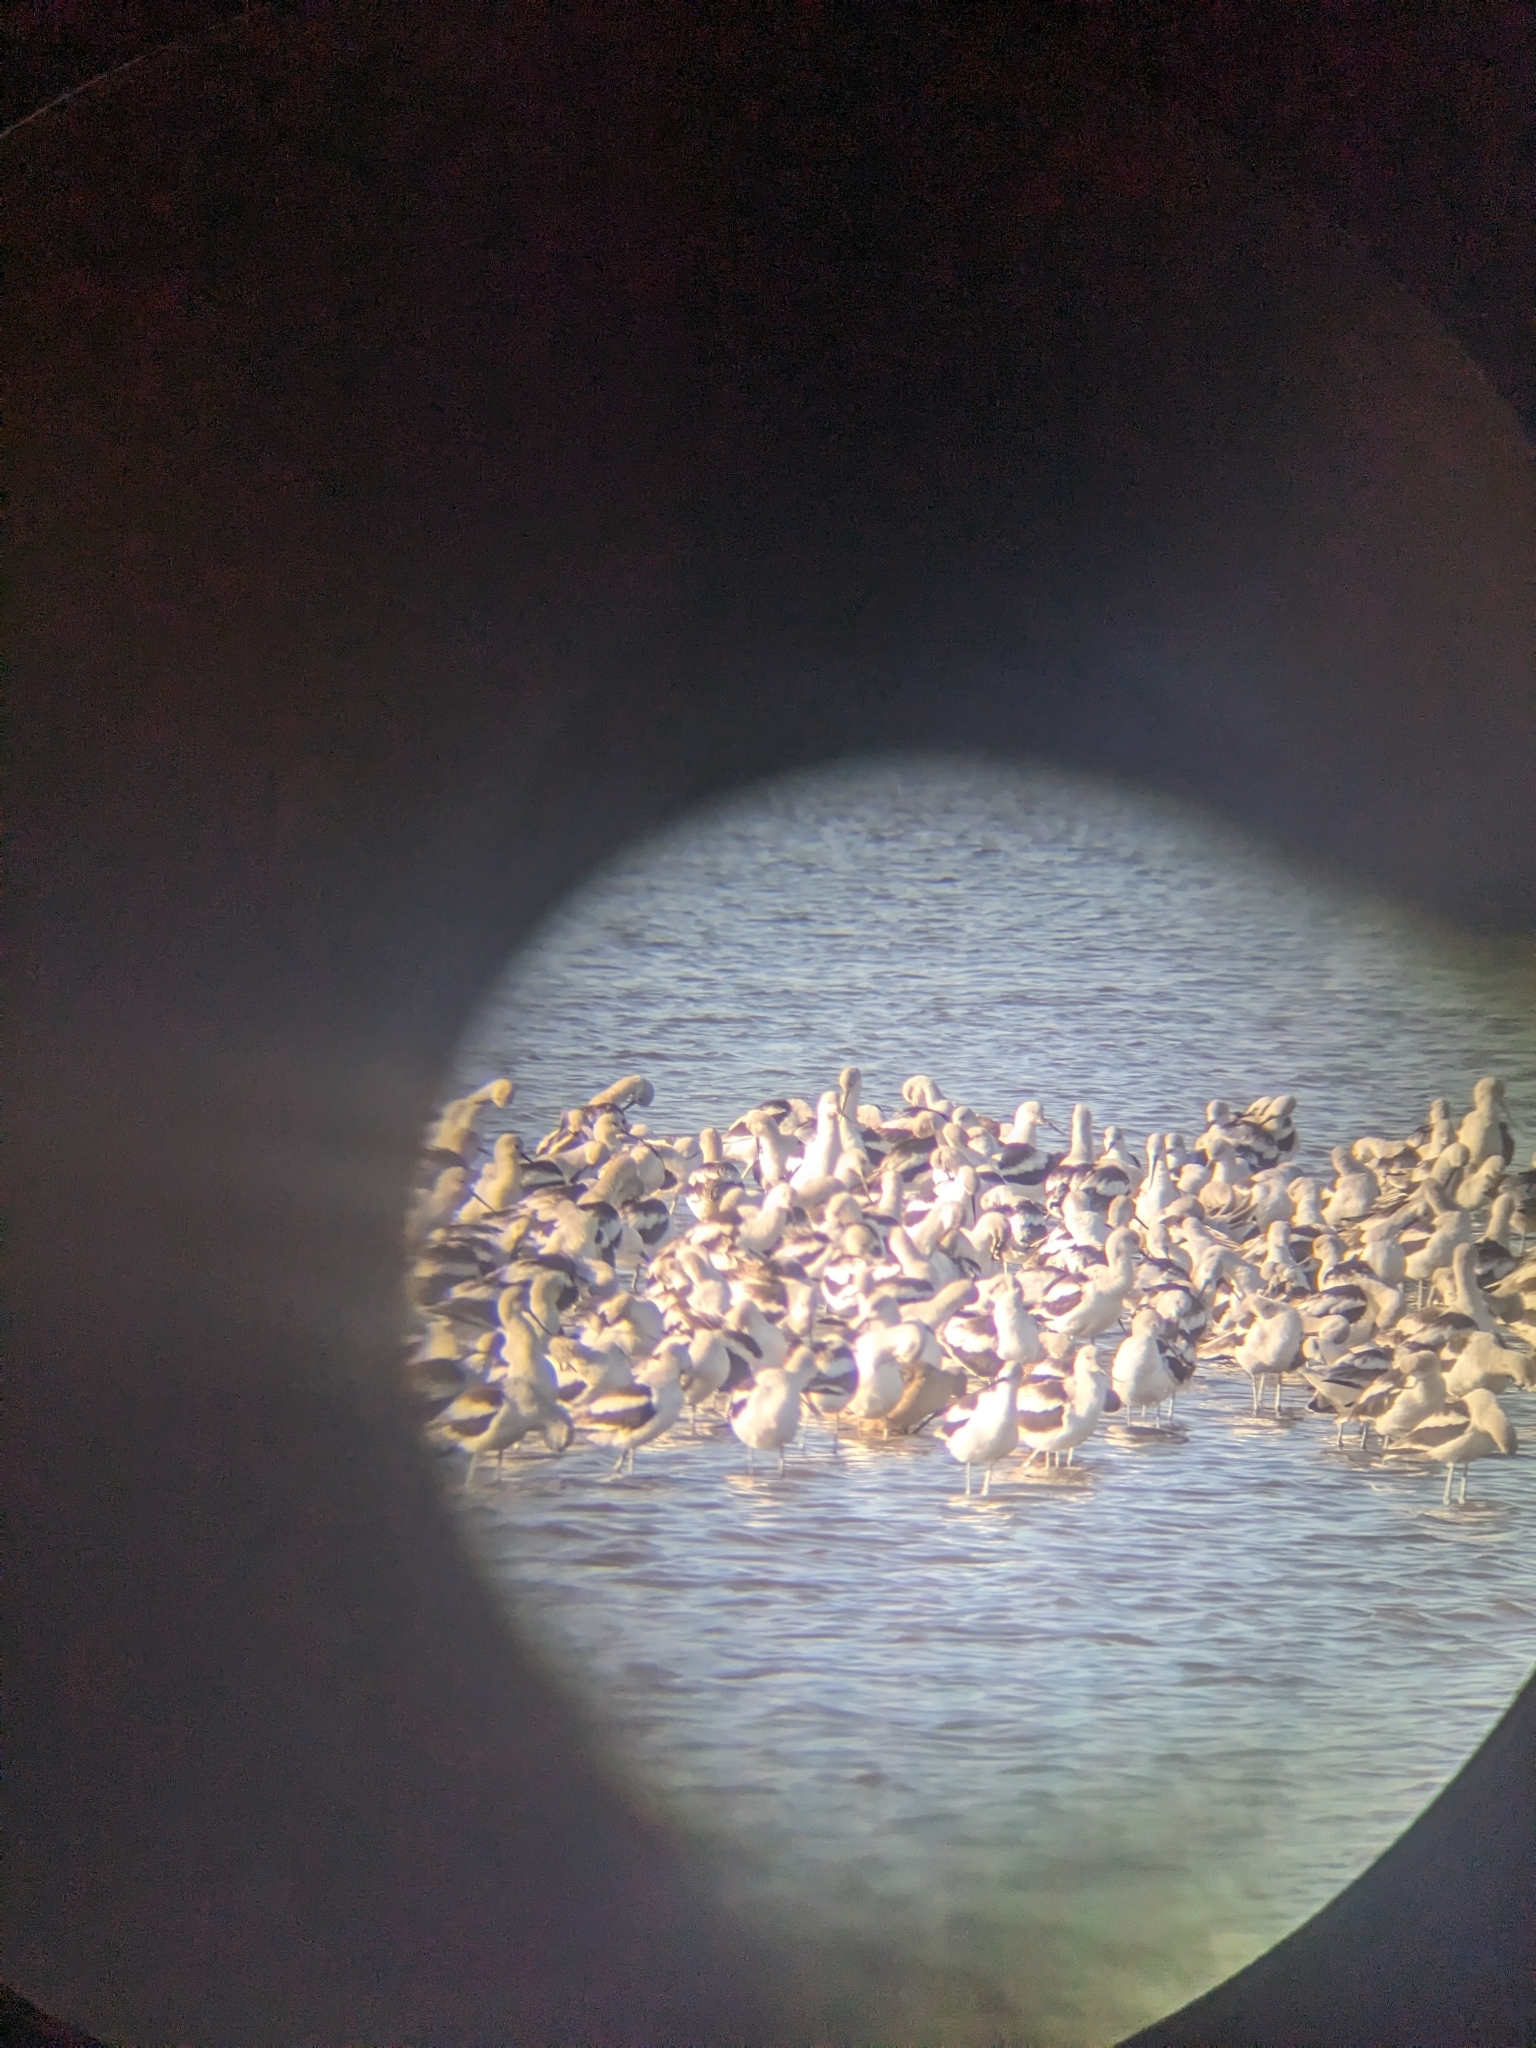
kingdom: Animalia
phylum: Chordata
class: Aves
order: Charadriiformes
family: Recurvirostridae
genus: Recurvirostra
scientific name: Recurvirostra americana
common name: American avocet
